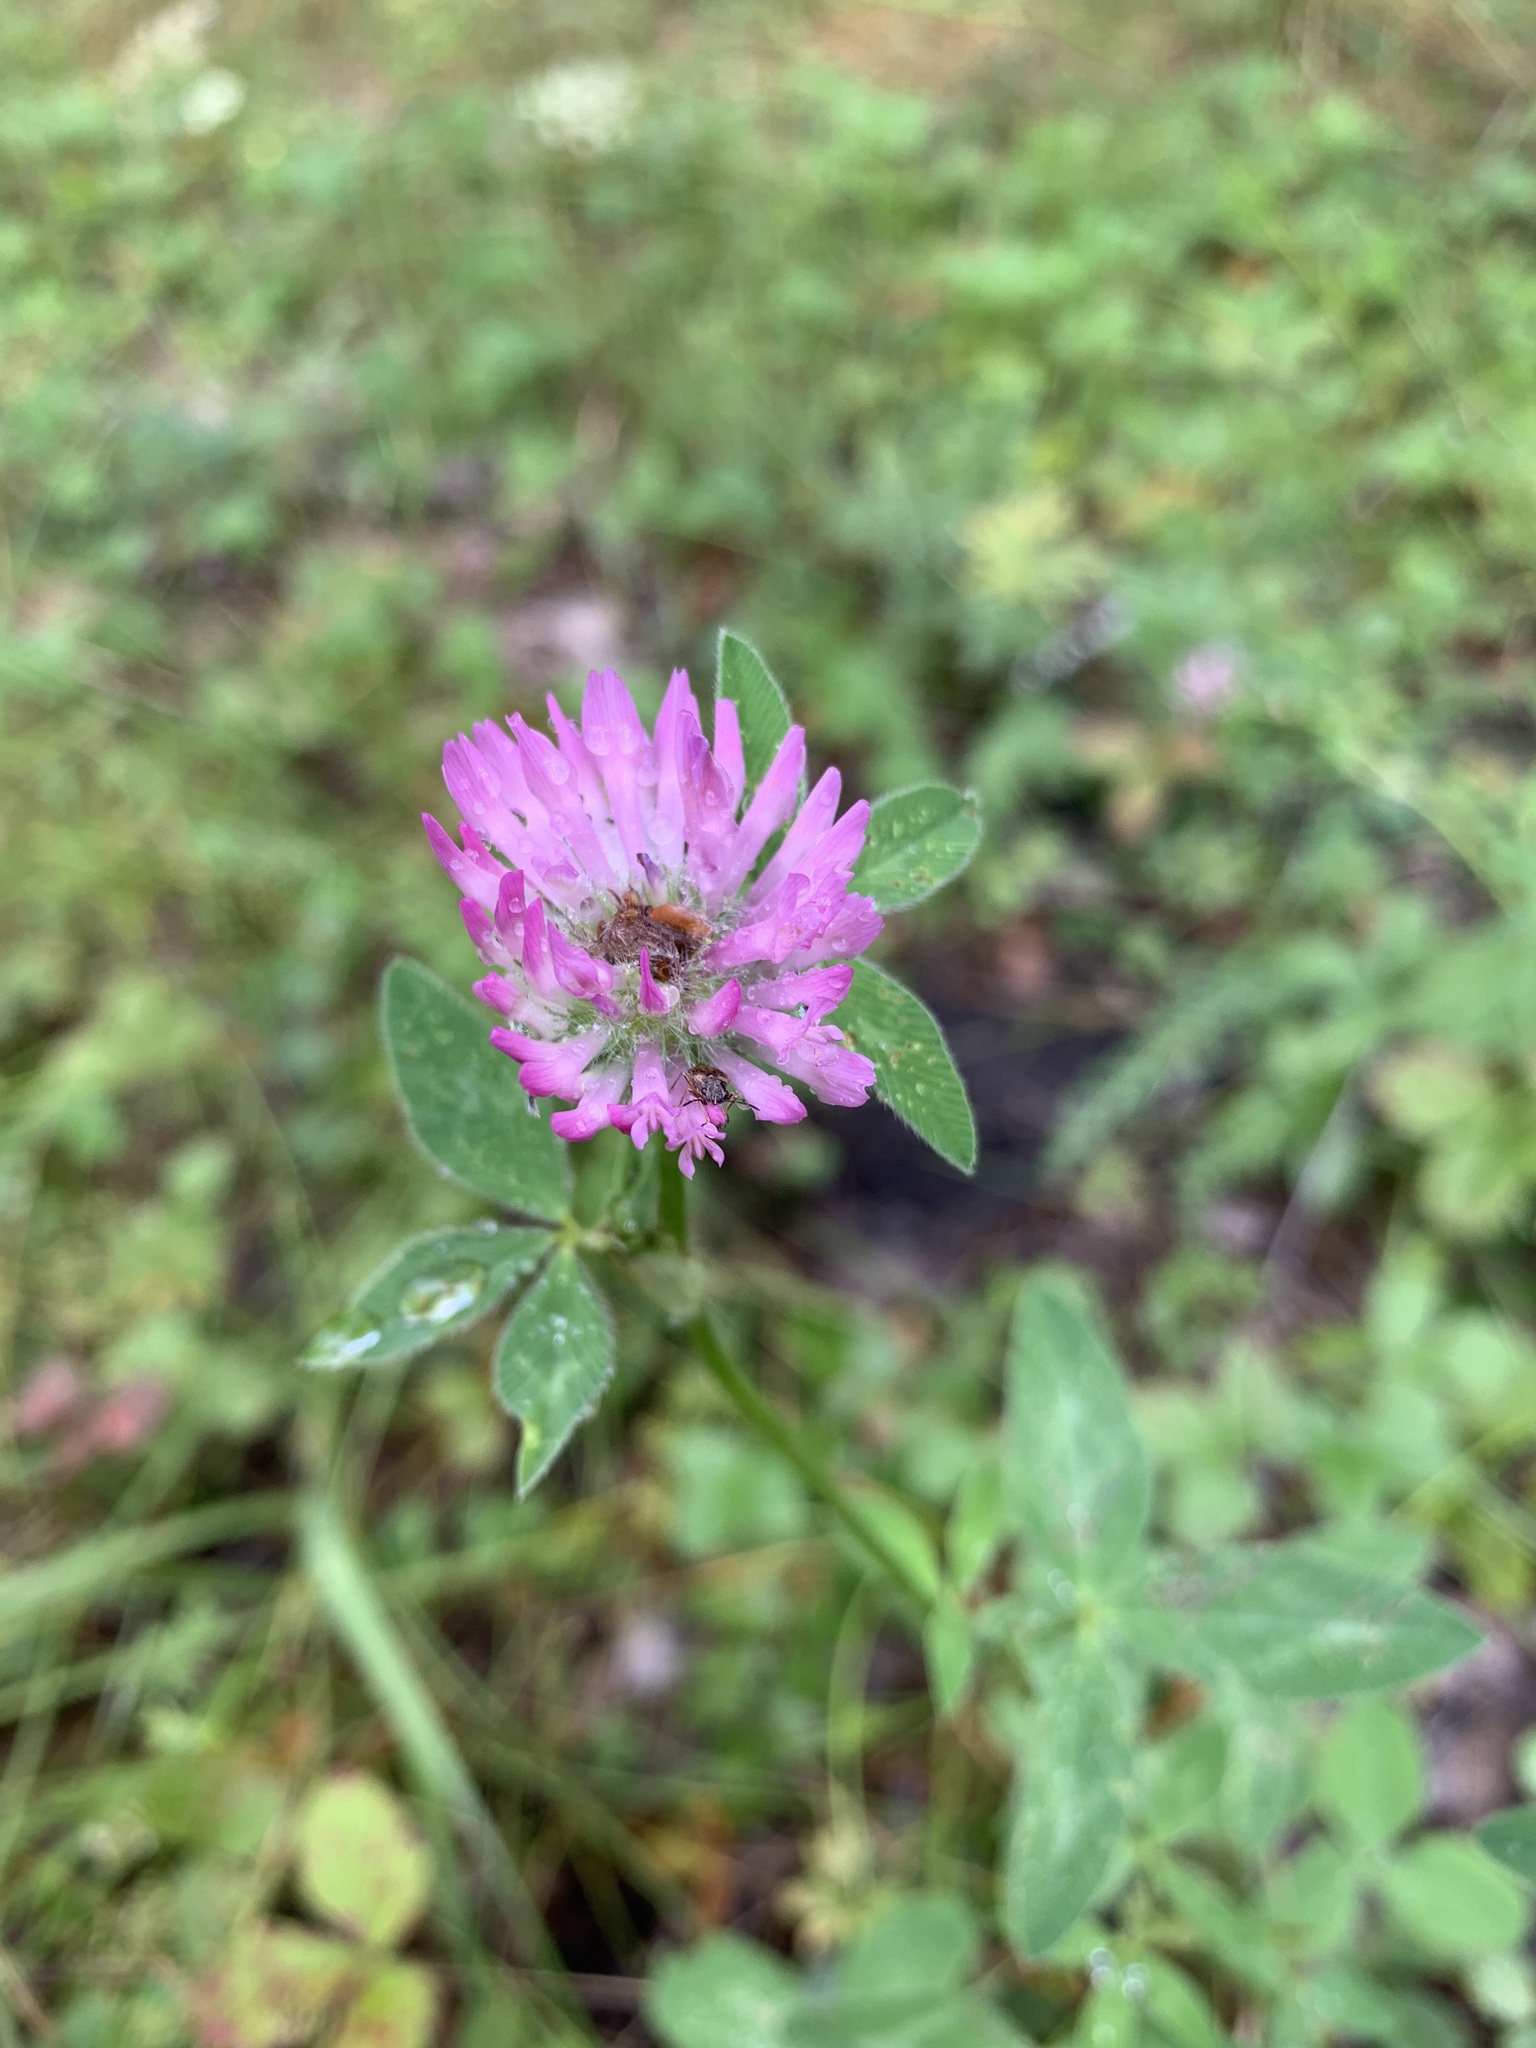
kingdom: Plantae
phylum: Tracheophyta
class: Magnoliopsida
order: Fabales
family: Fabaceae
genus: Trifolium
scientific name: Trifolium pratense
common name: Red clover
